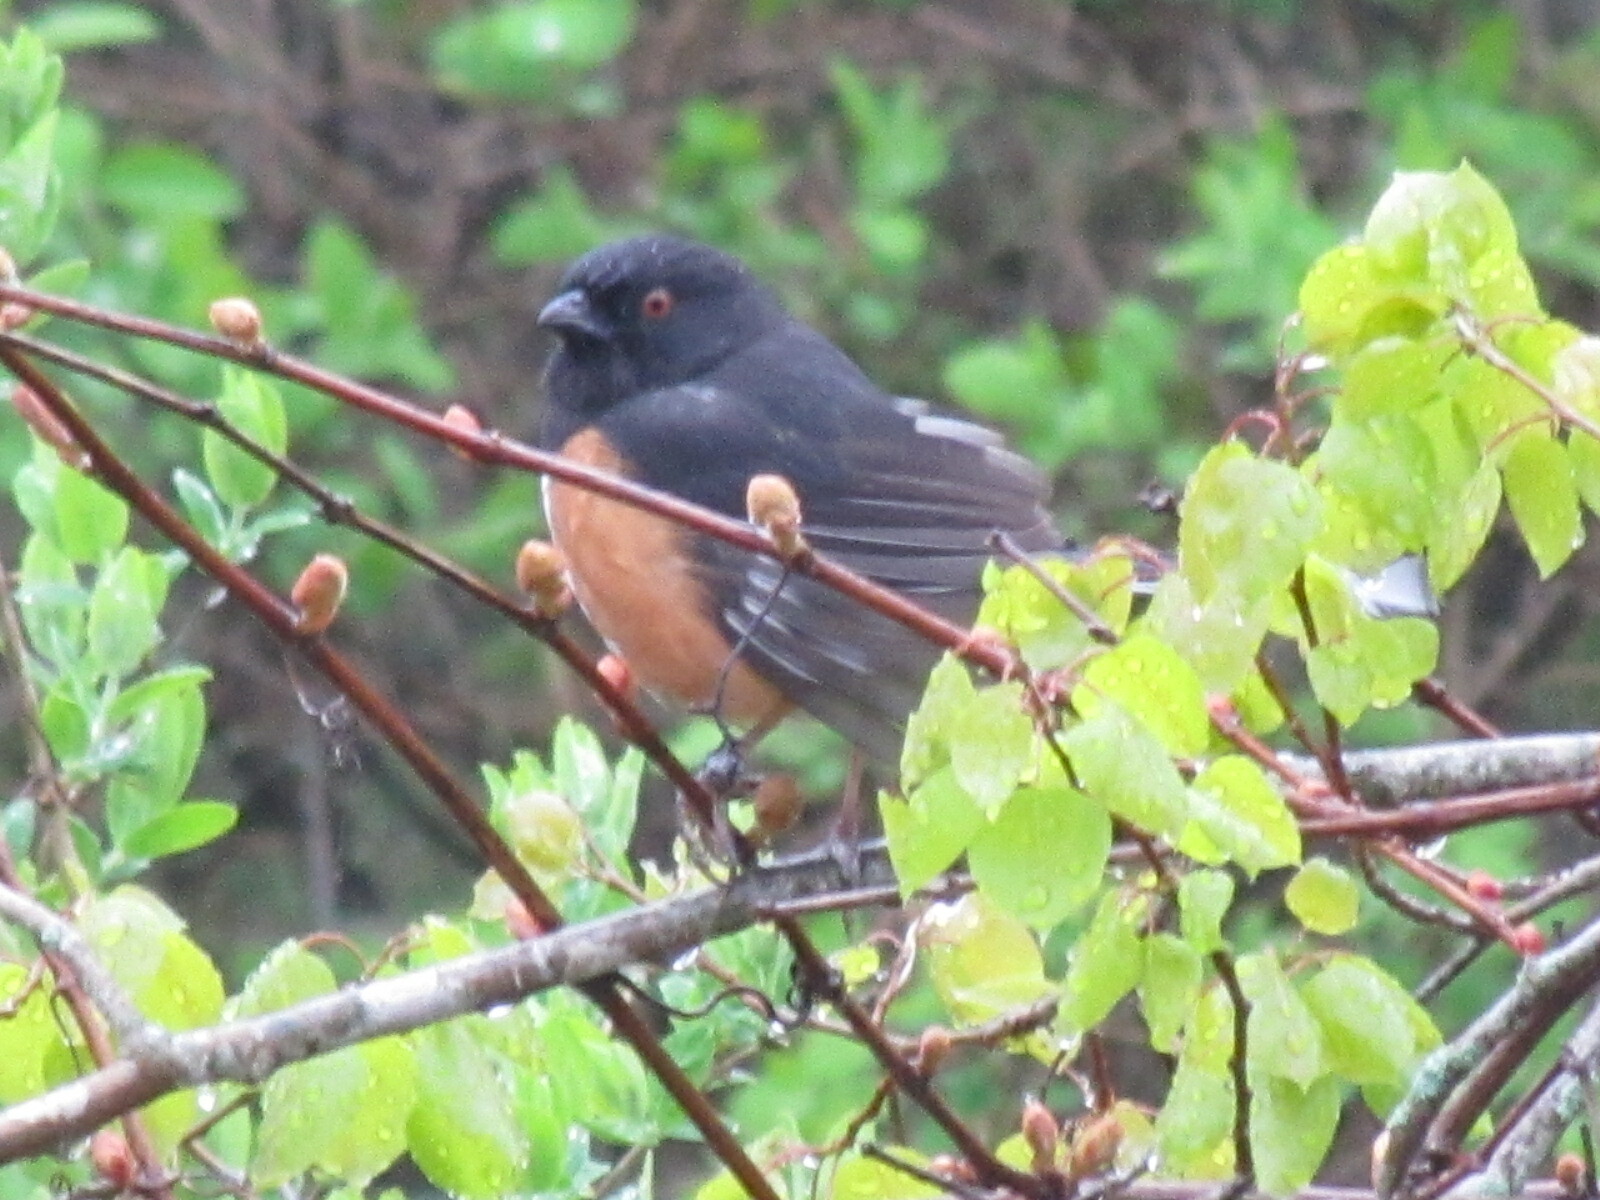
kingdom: Animalia
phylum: Chordata
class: Aves
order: Passeriformes
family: Passerellidae
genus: Pipilo
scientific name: Pipilo erythrophthalmus
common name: Eastern towhee
